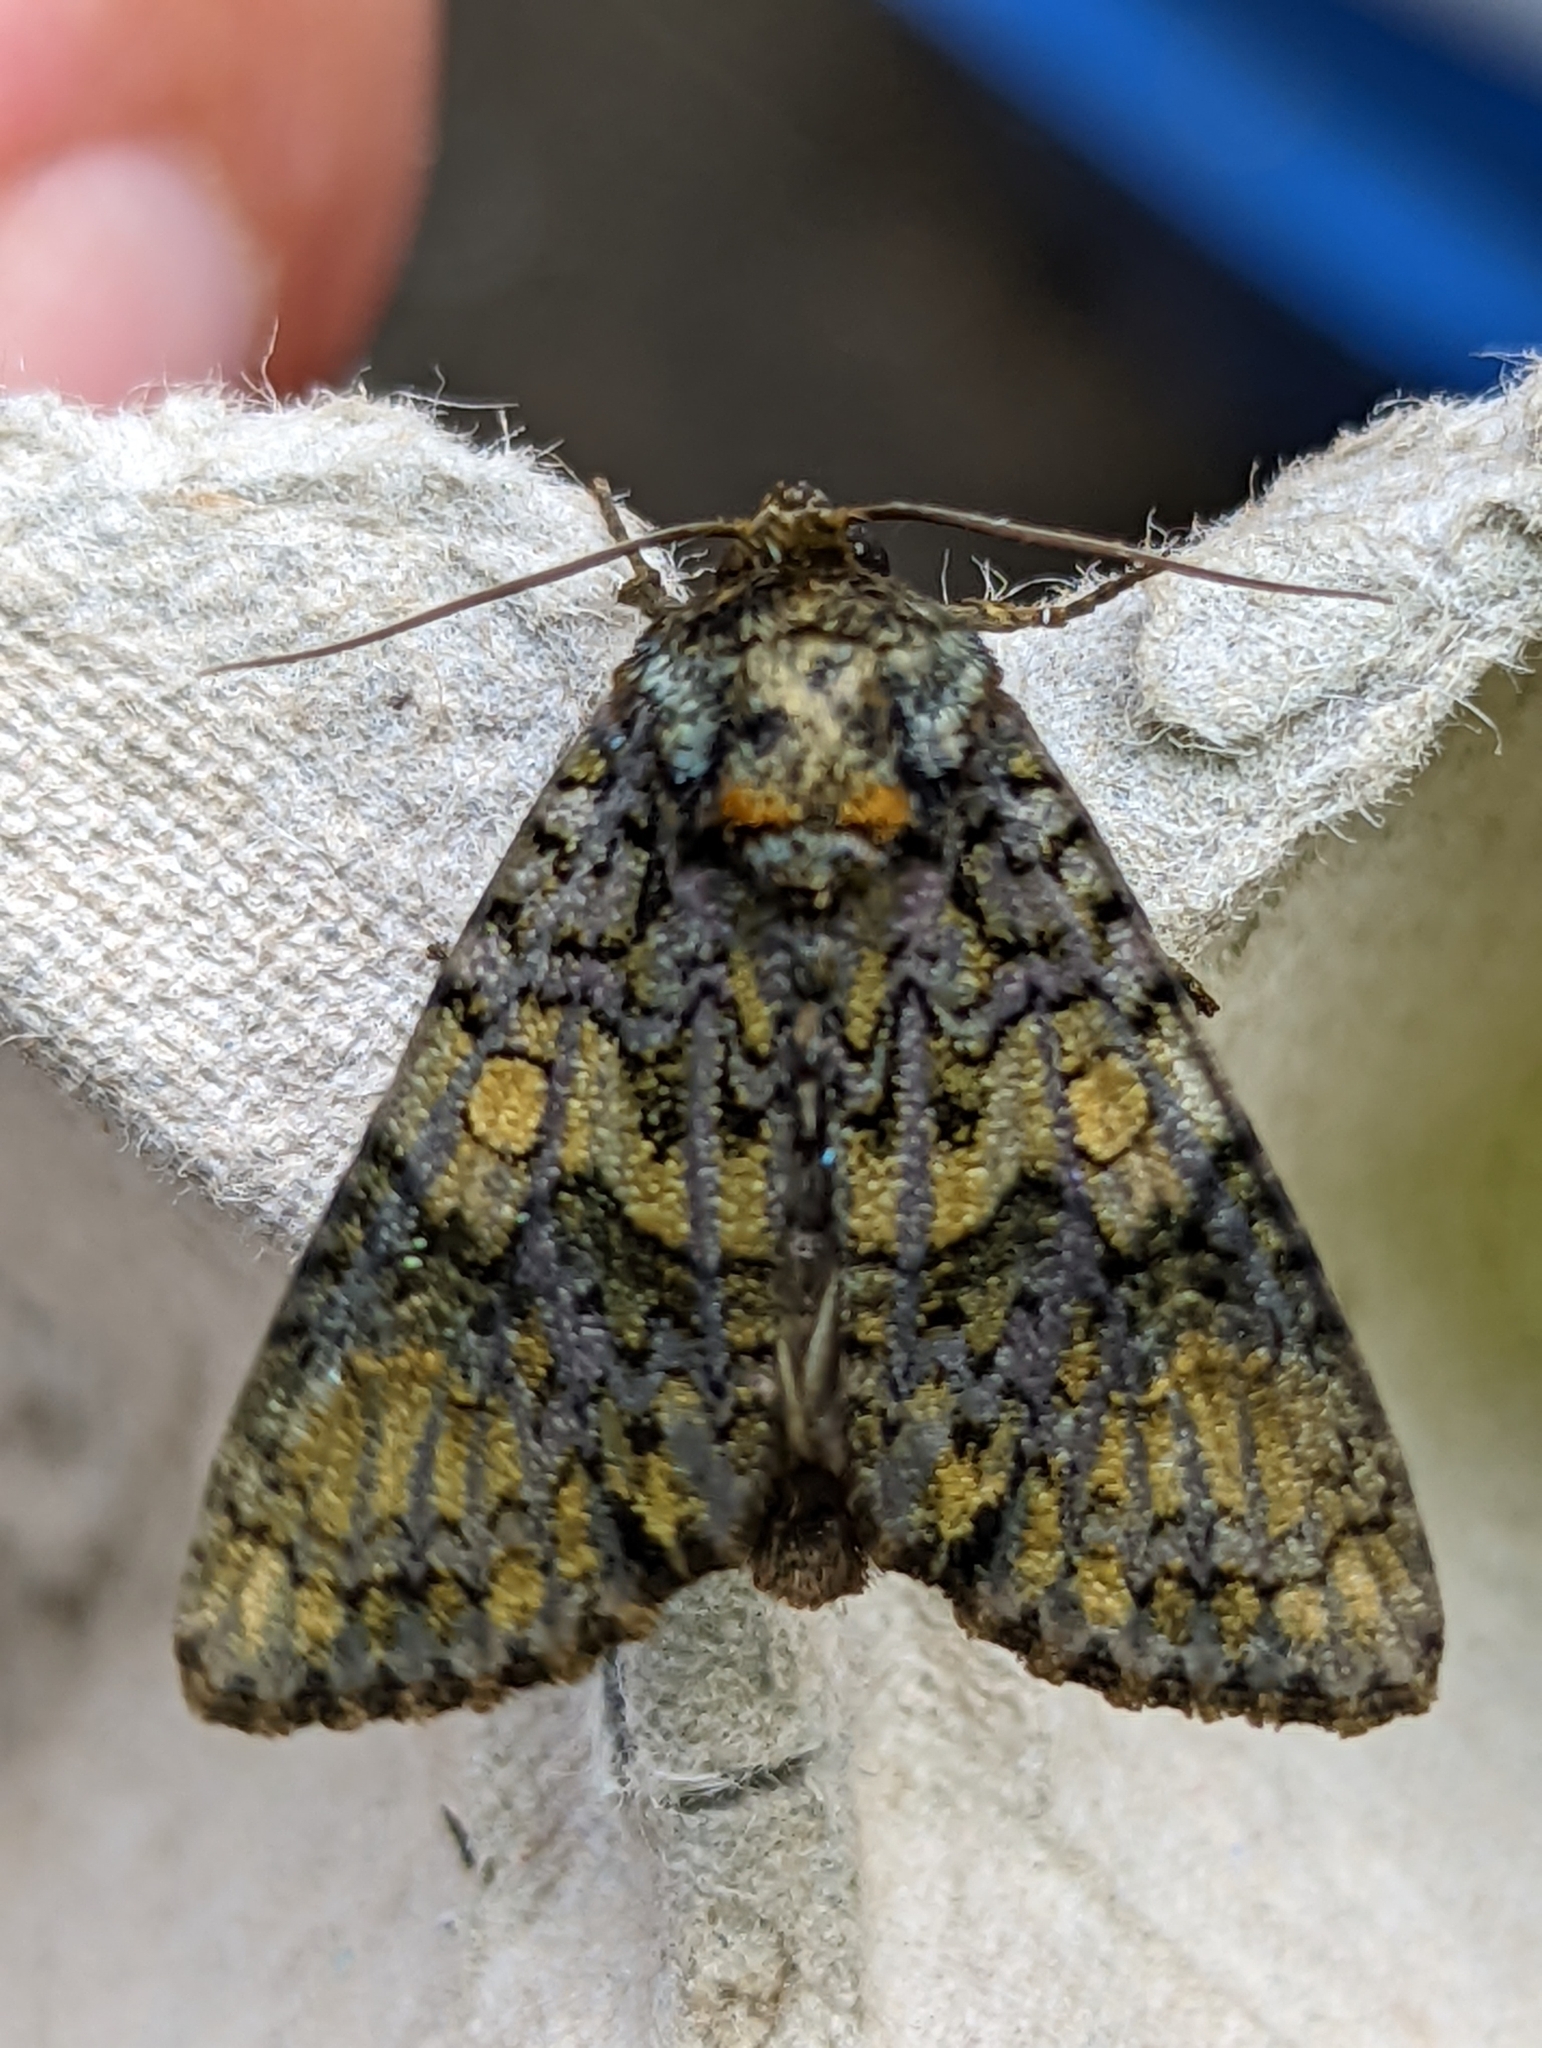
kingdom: Animalia
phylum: Arthropoda
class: Insecta
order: Lepidoptera
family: Noctuidae
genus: Craniophora
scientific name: Craniophora ligustri
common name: Coronet
